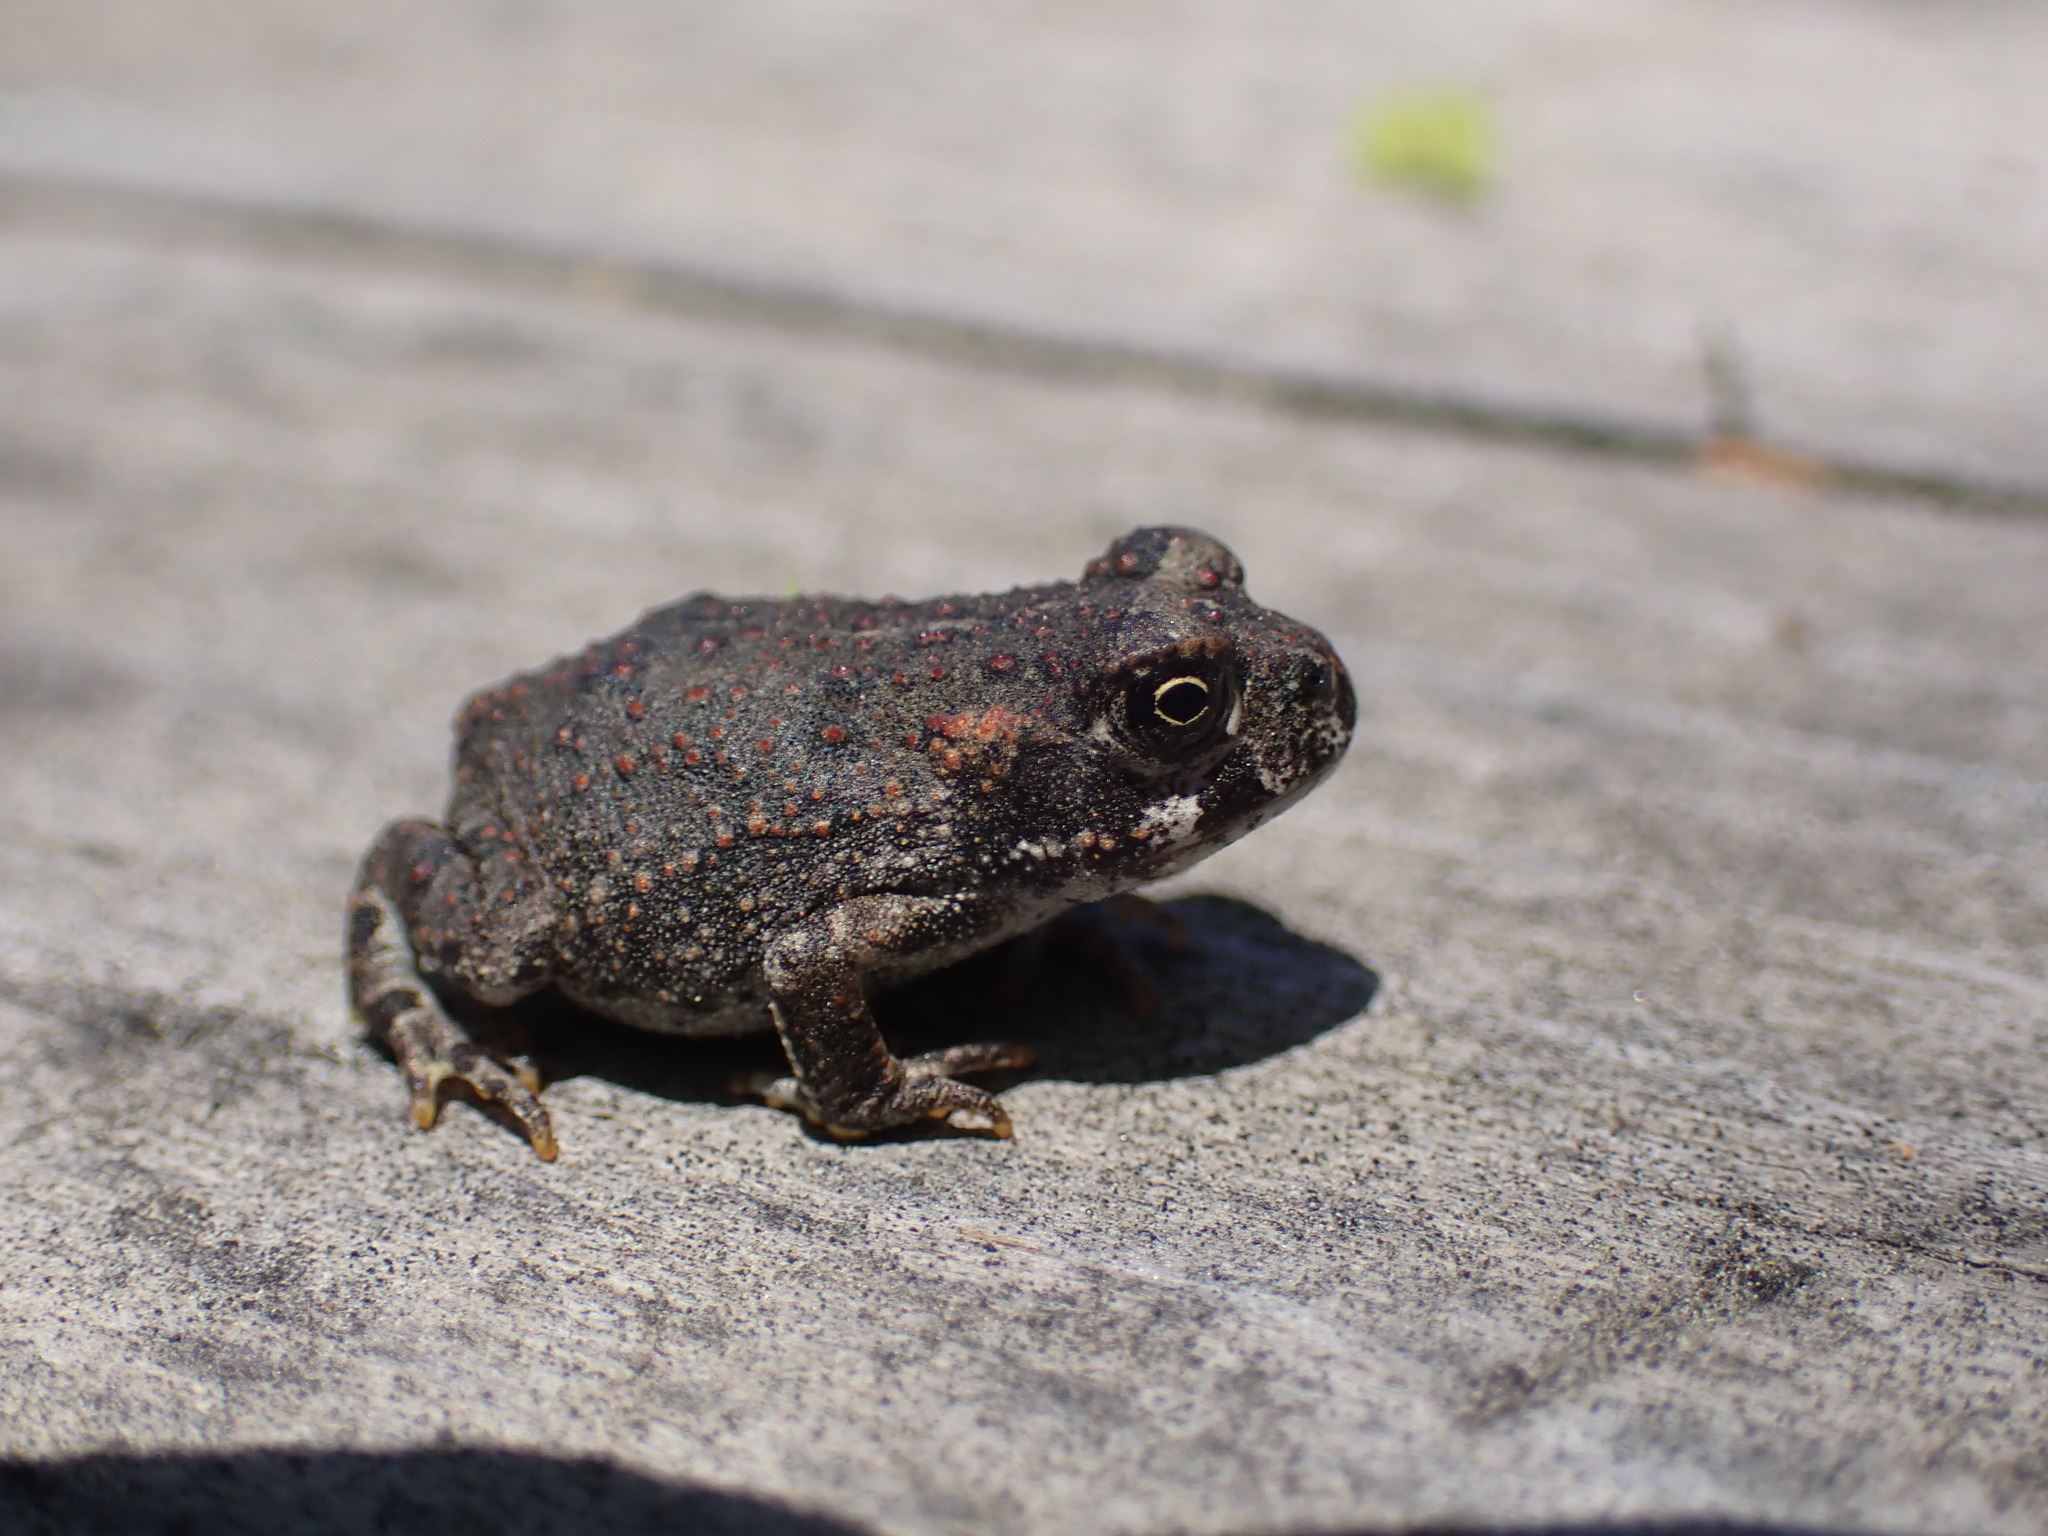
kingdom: Animalia
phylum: Chordata
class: Amphibia
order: Anura
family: Bufonidae
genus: Anaxyrus
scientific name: Anaxyrus boreas
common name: Western toad
